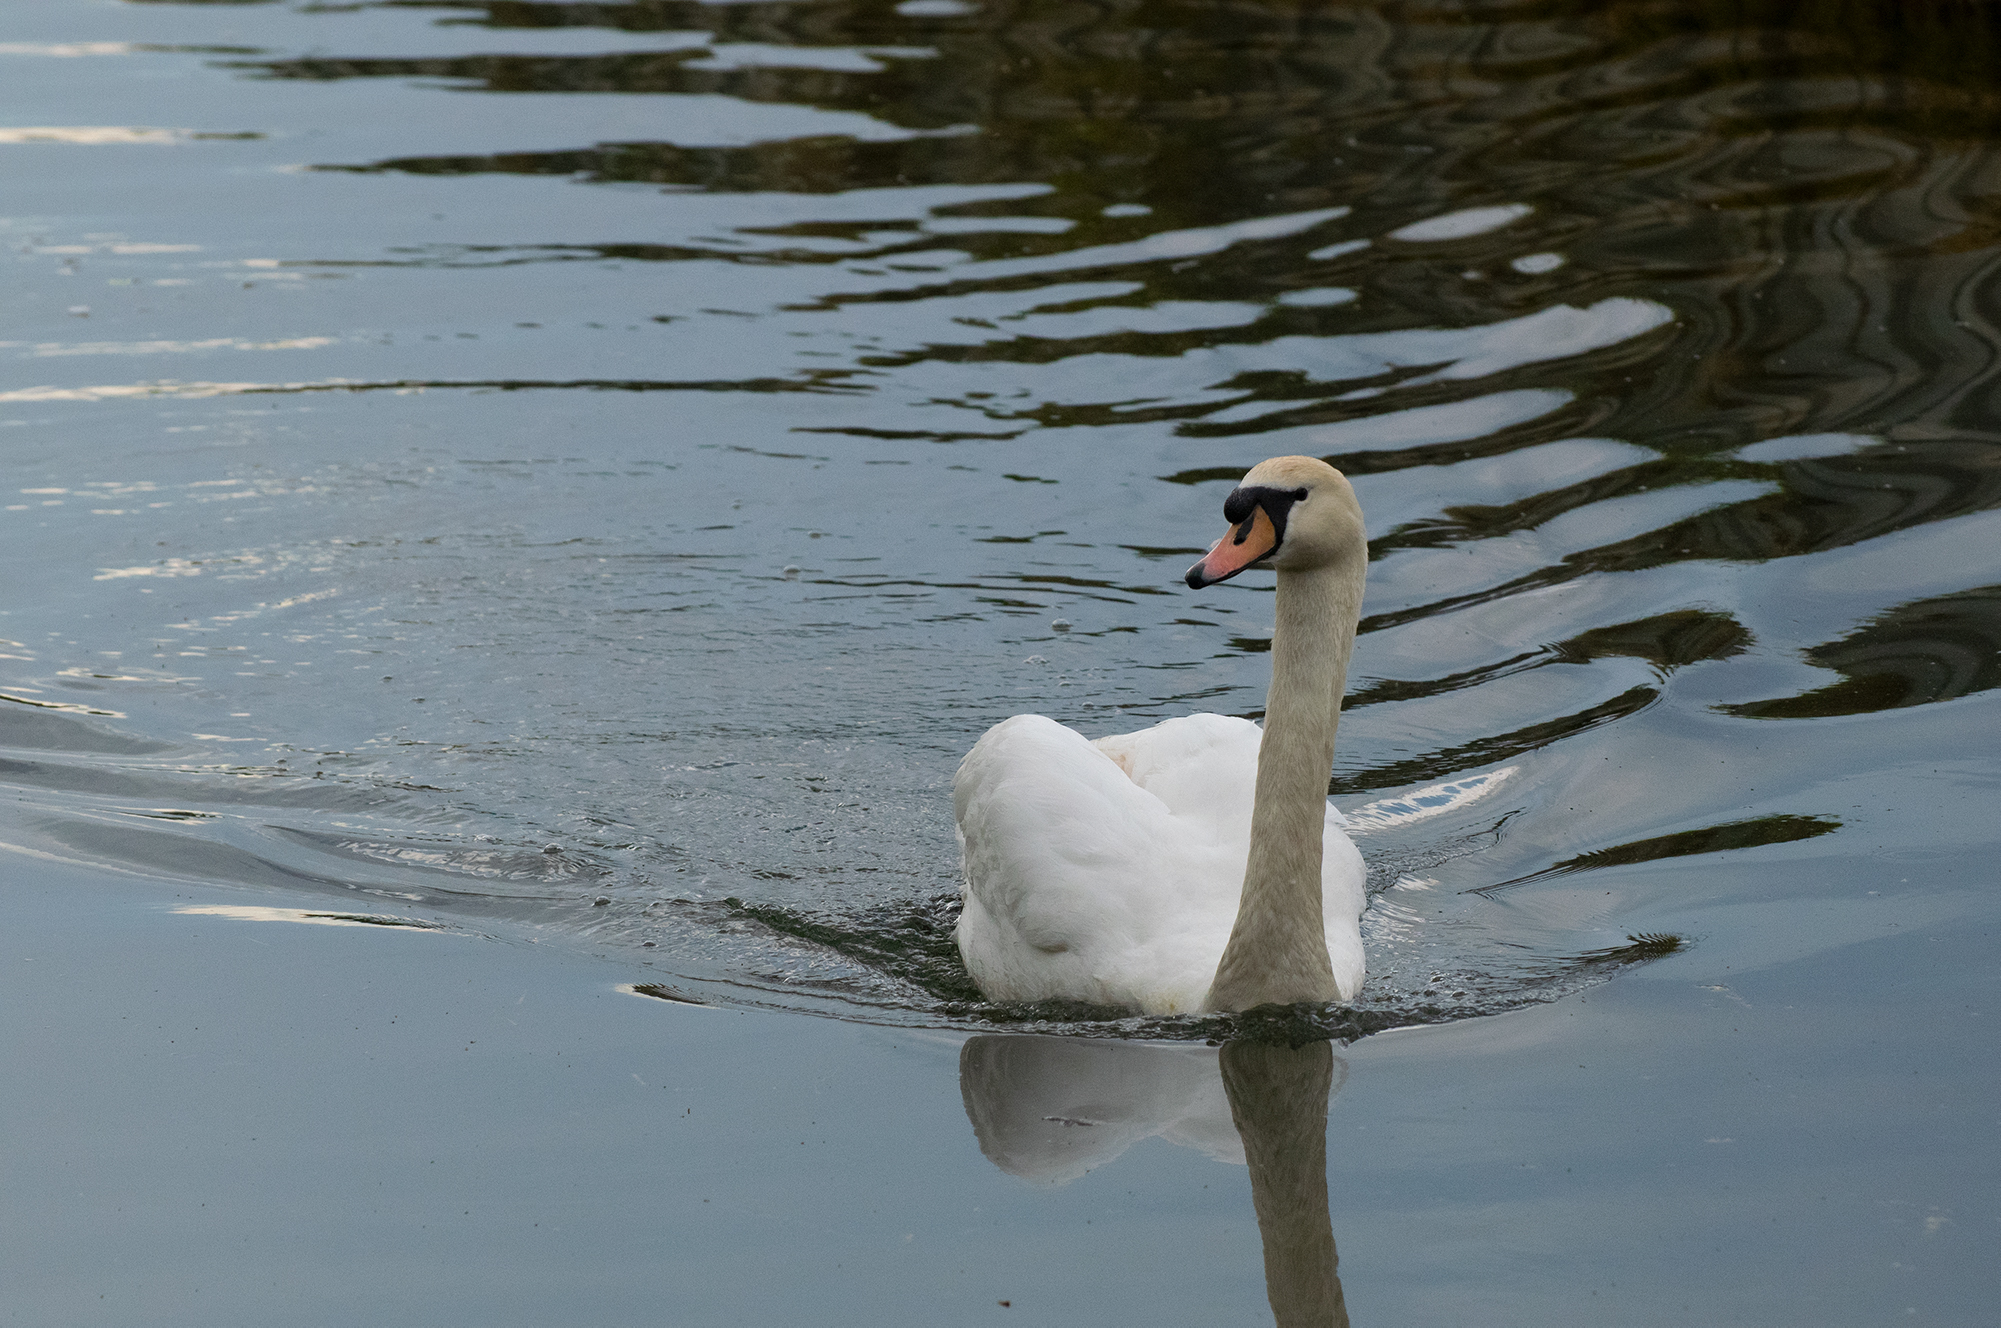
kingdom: Animalia
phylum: Chordata
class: Aves
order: Anseriformes
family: Anatidae
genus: Cygnus
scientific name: Cygnus olor
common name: Mute swan
